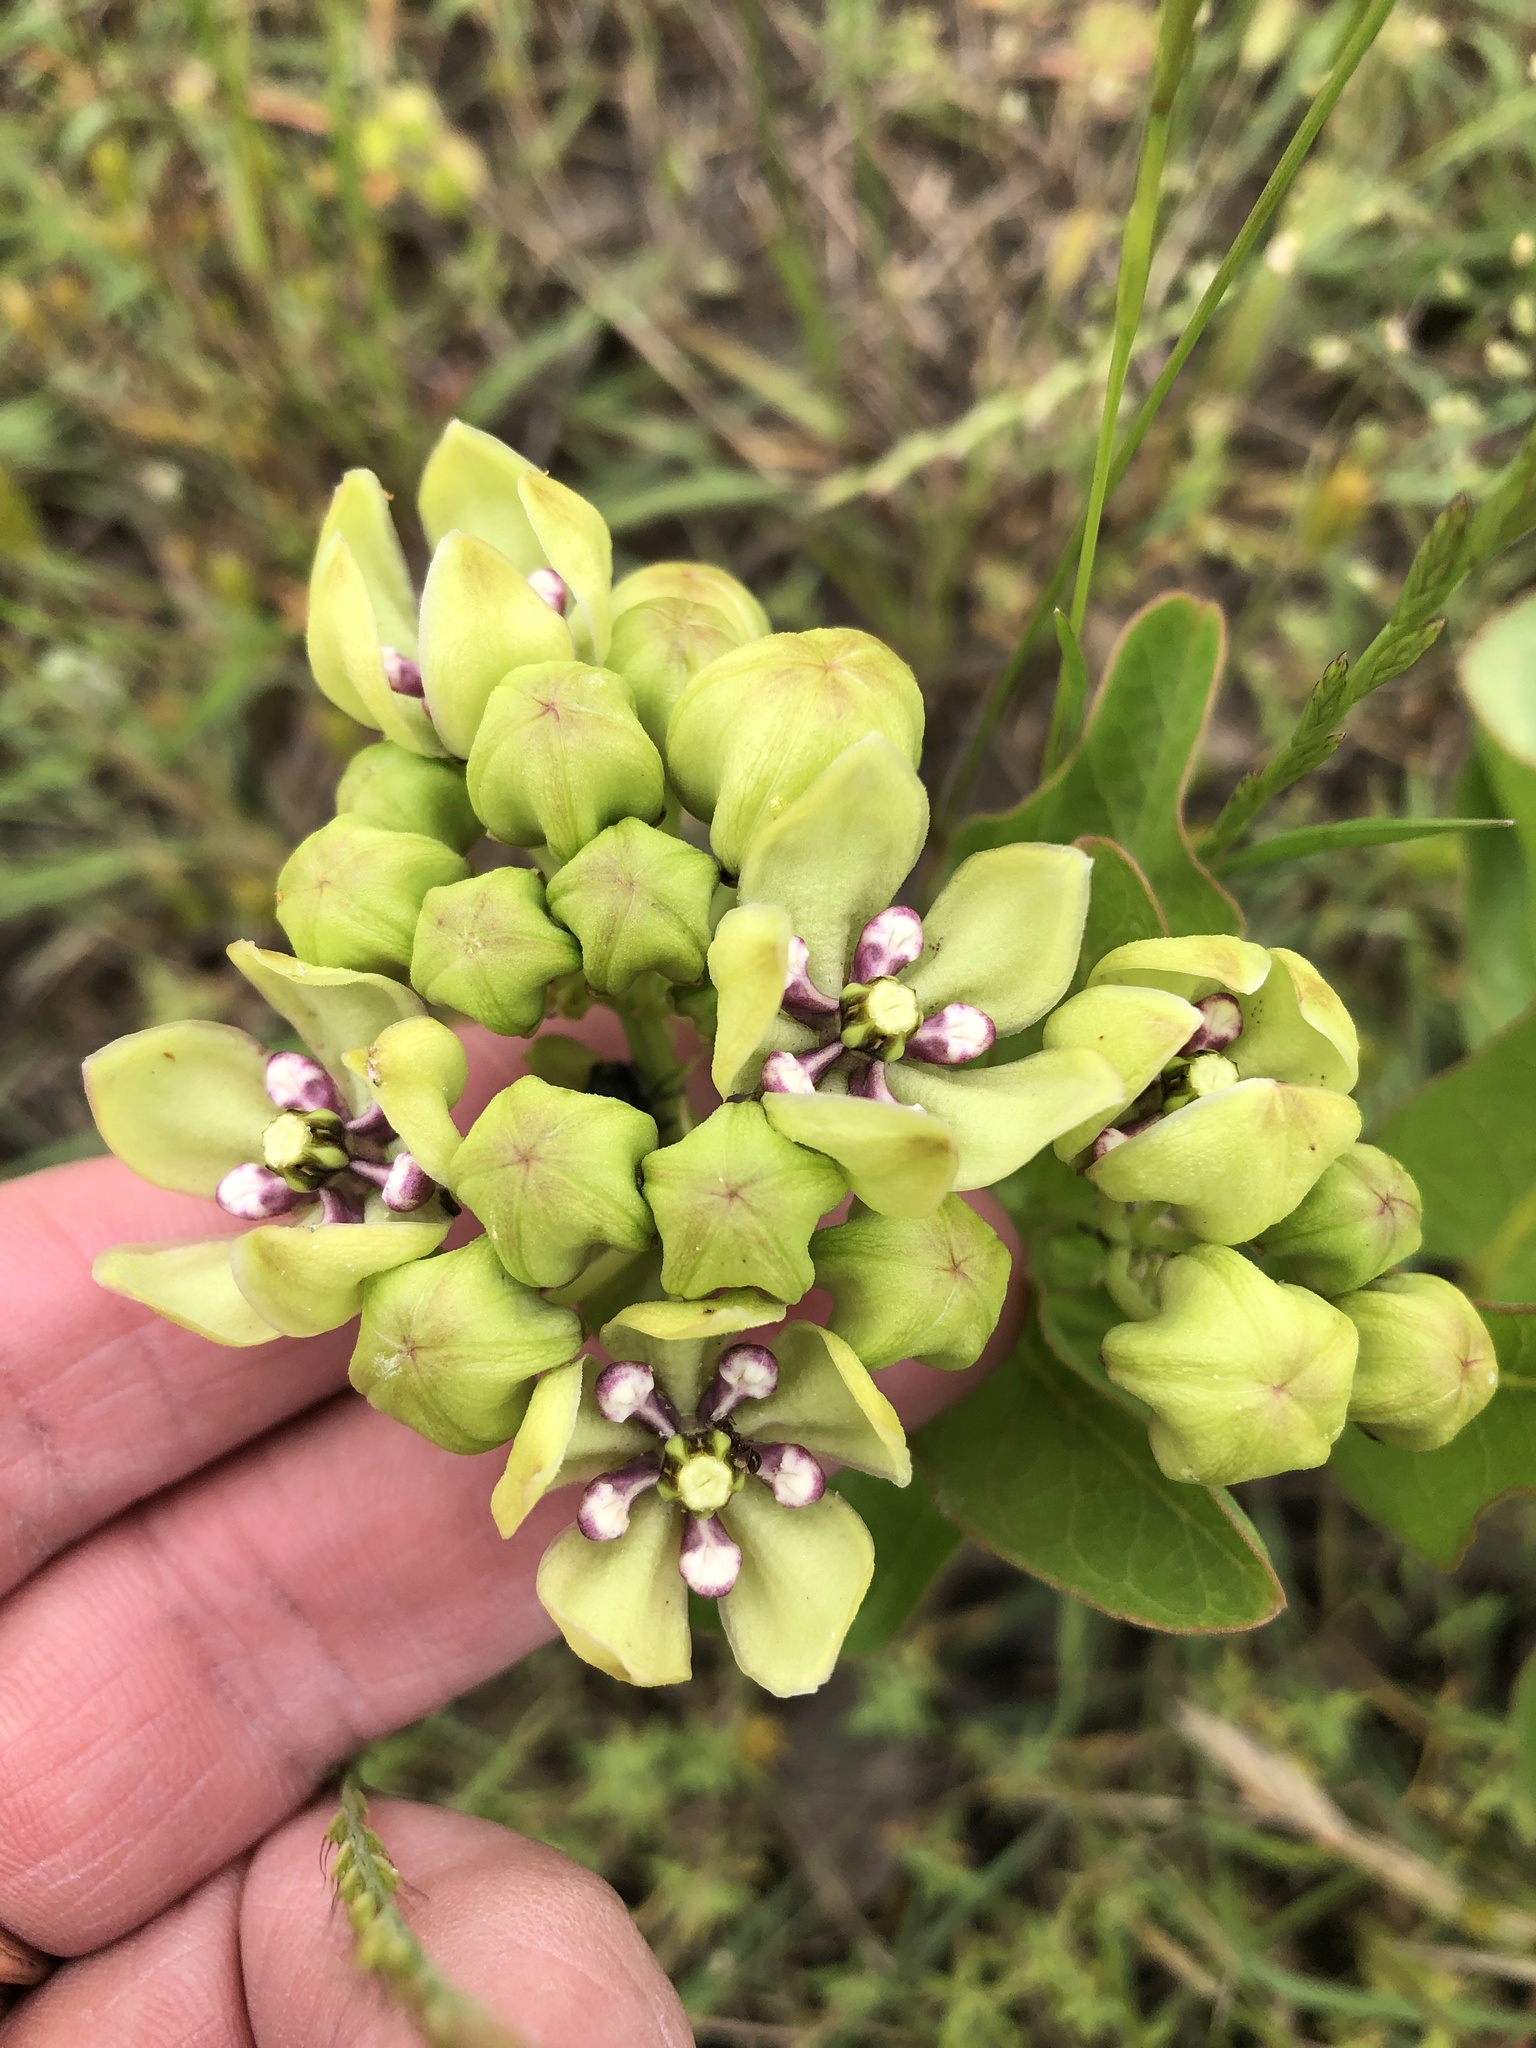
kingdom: Plantae
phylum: Tracheophyta
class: Magnoliopsida
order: Gentianales
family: Apocynaceae
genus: Asclepias
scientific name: Asclepias viridis
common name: Antelope-horns
